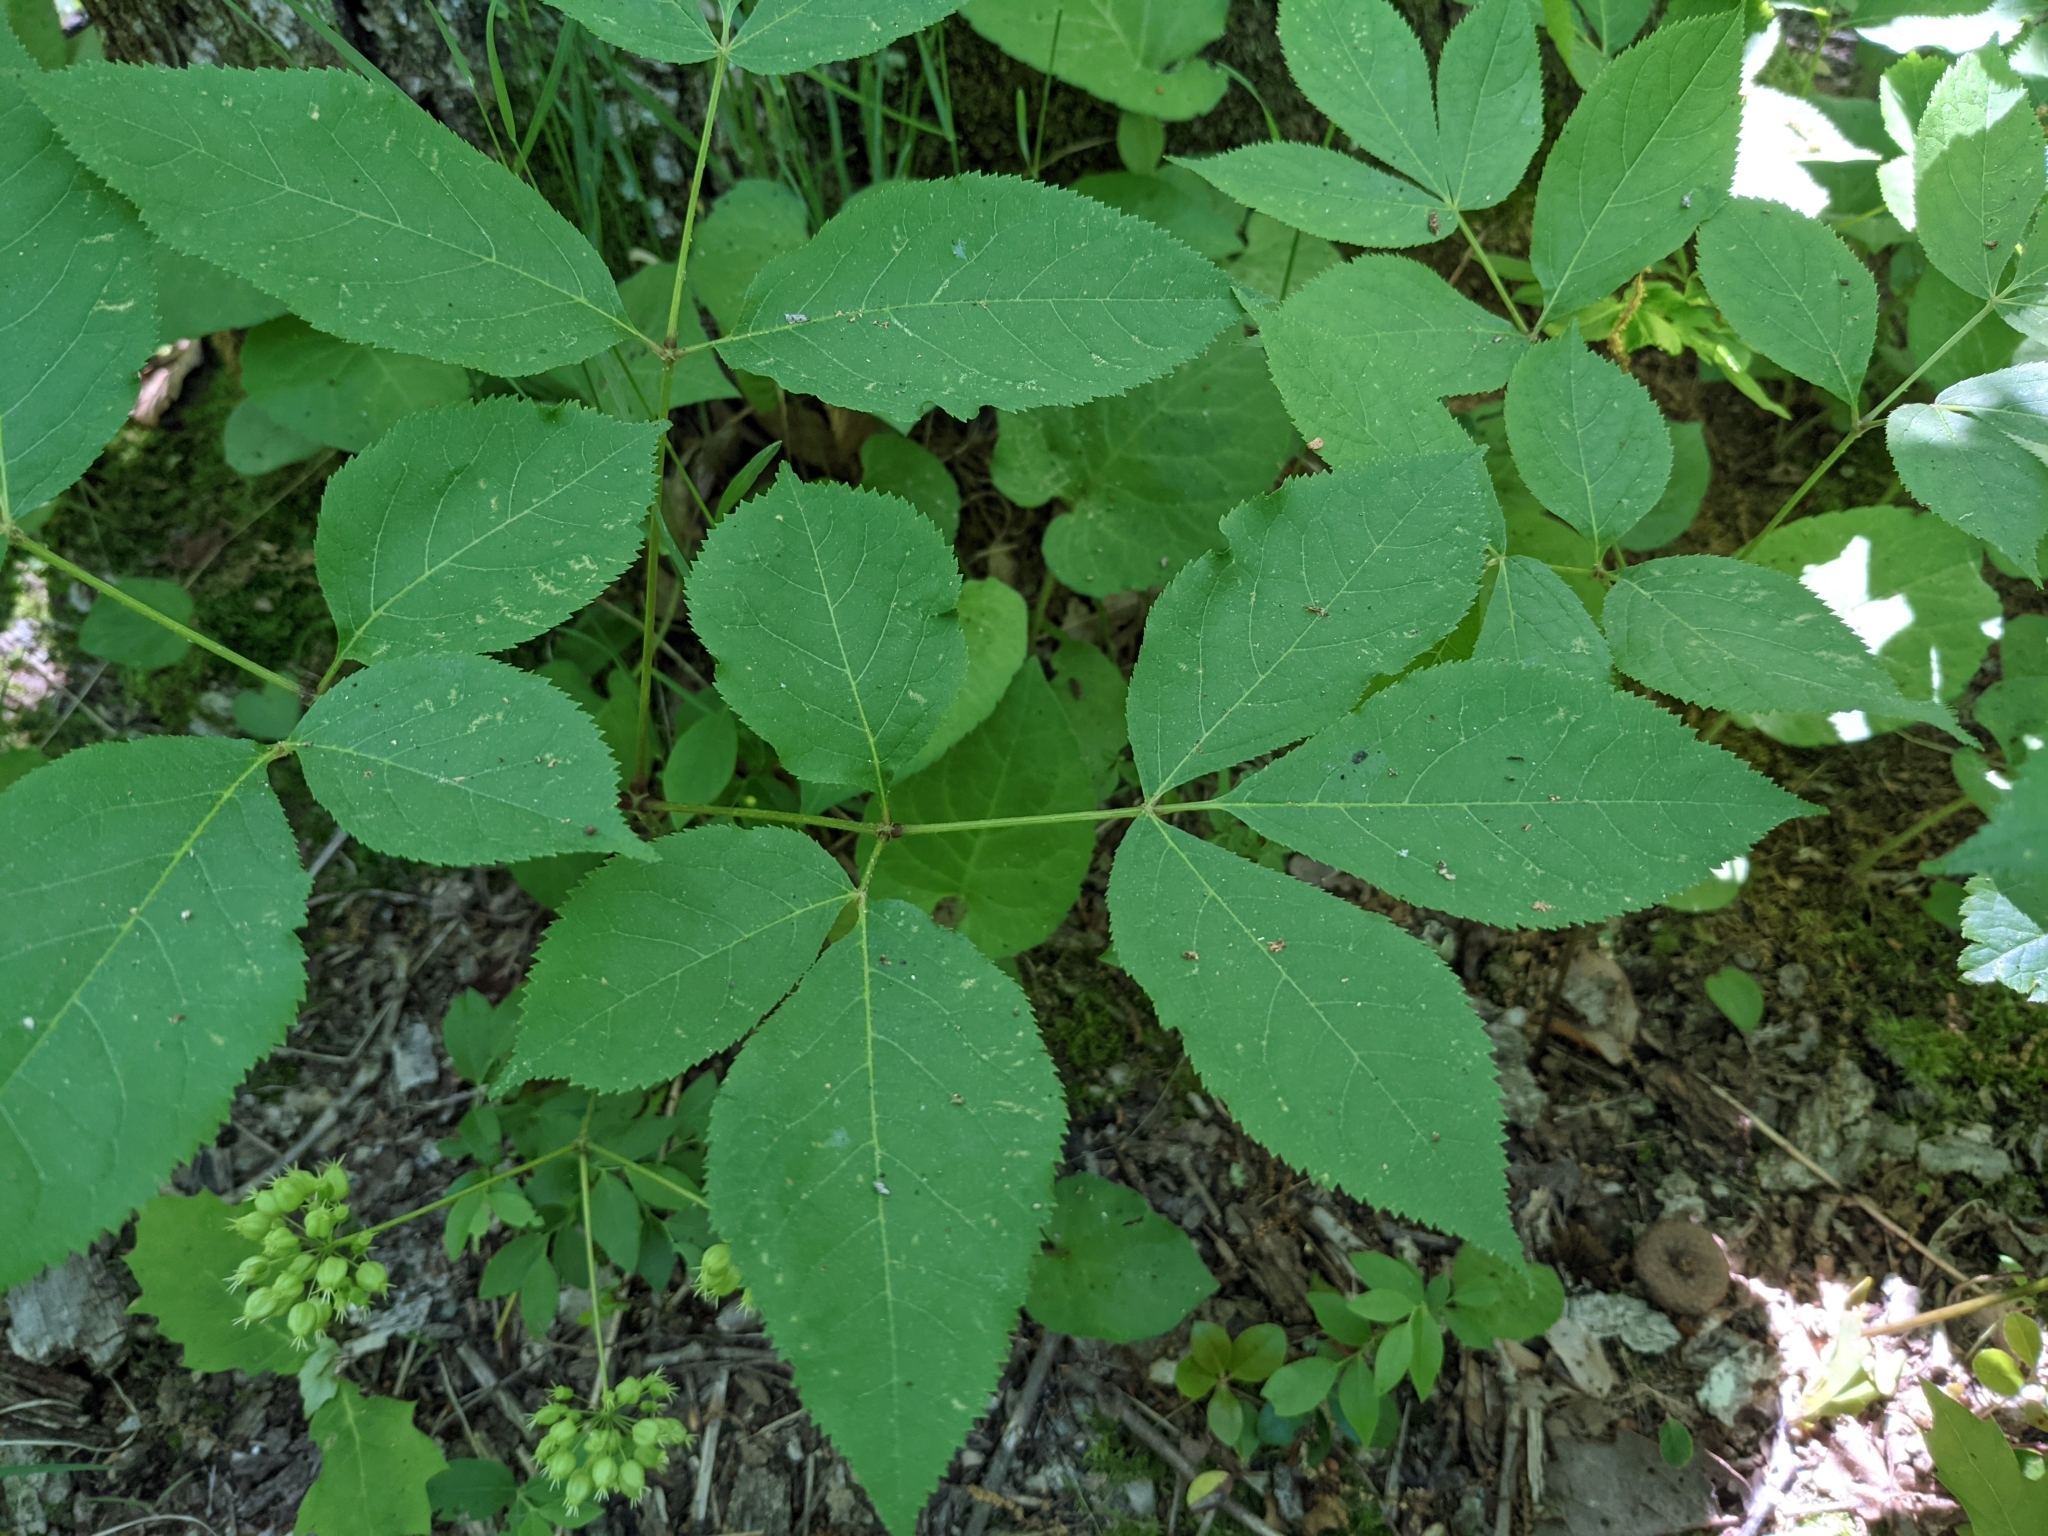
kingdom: Plantae
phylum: Tracheophyta
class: Magnoliopsida
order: Apiales
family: Araliaceae
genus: Aralia
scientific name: Aralia nudicaulis
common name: Wild sarsaparilla
